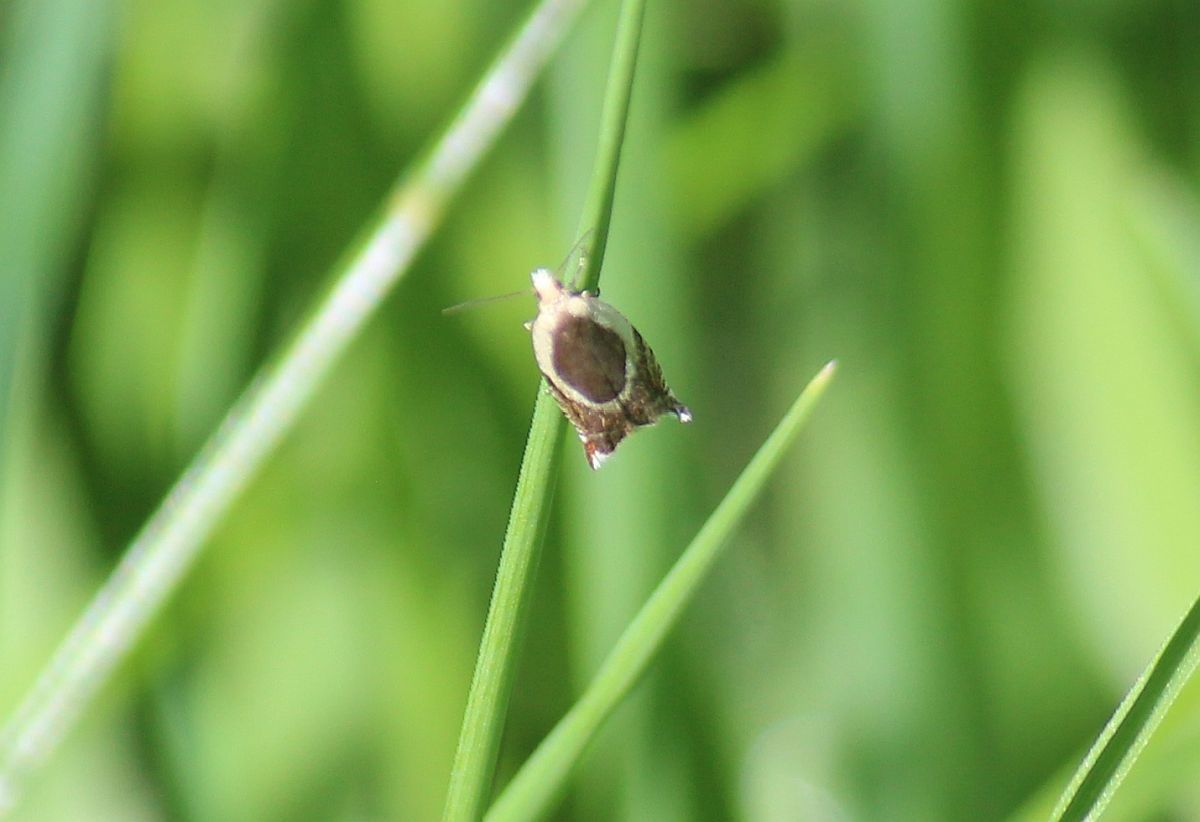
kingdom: Animalia
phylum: Arthropoda
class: Insecta
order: Lepidoptera
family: Tortricidae
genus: Ancylis
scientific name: Ancylis badiana
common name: Common roller
